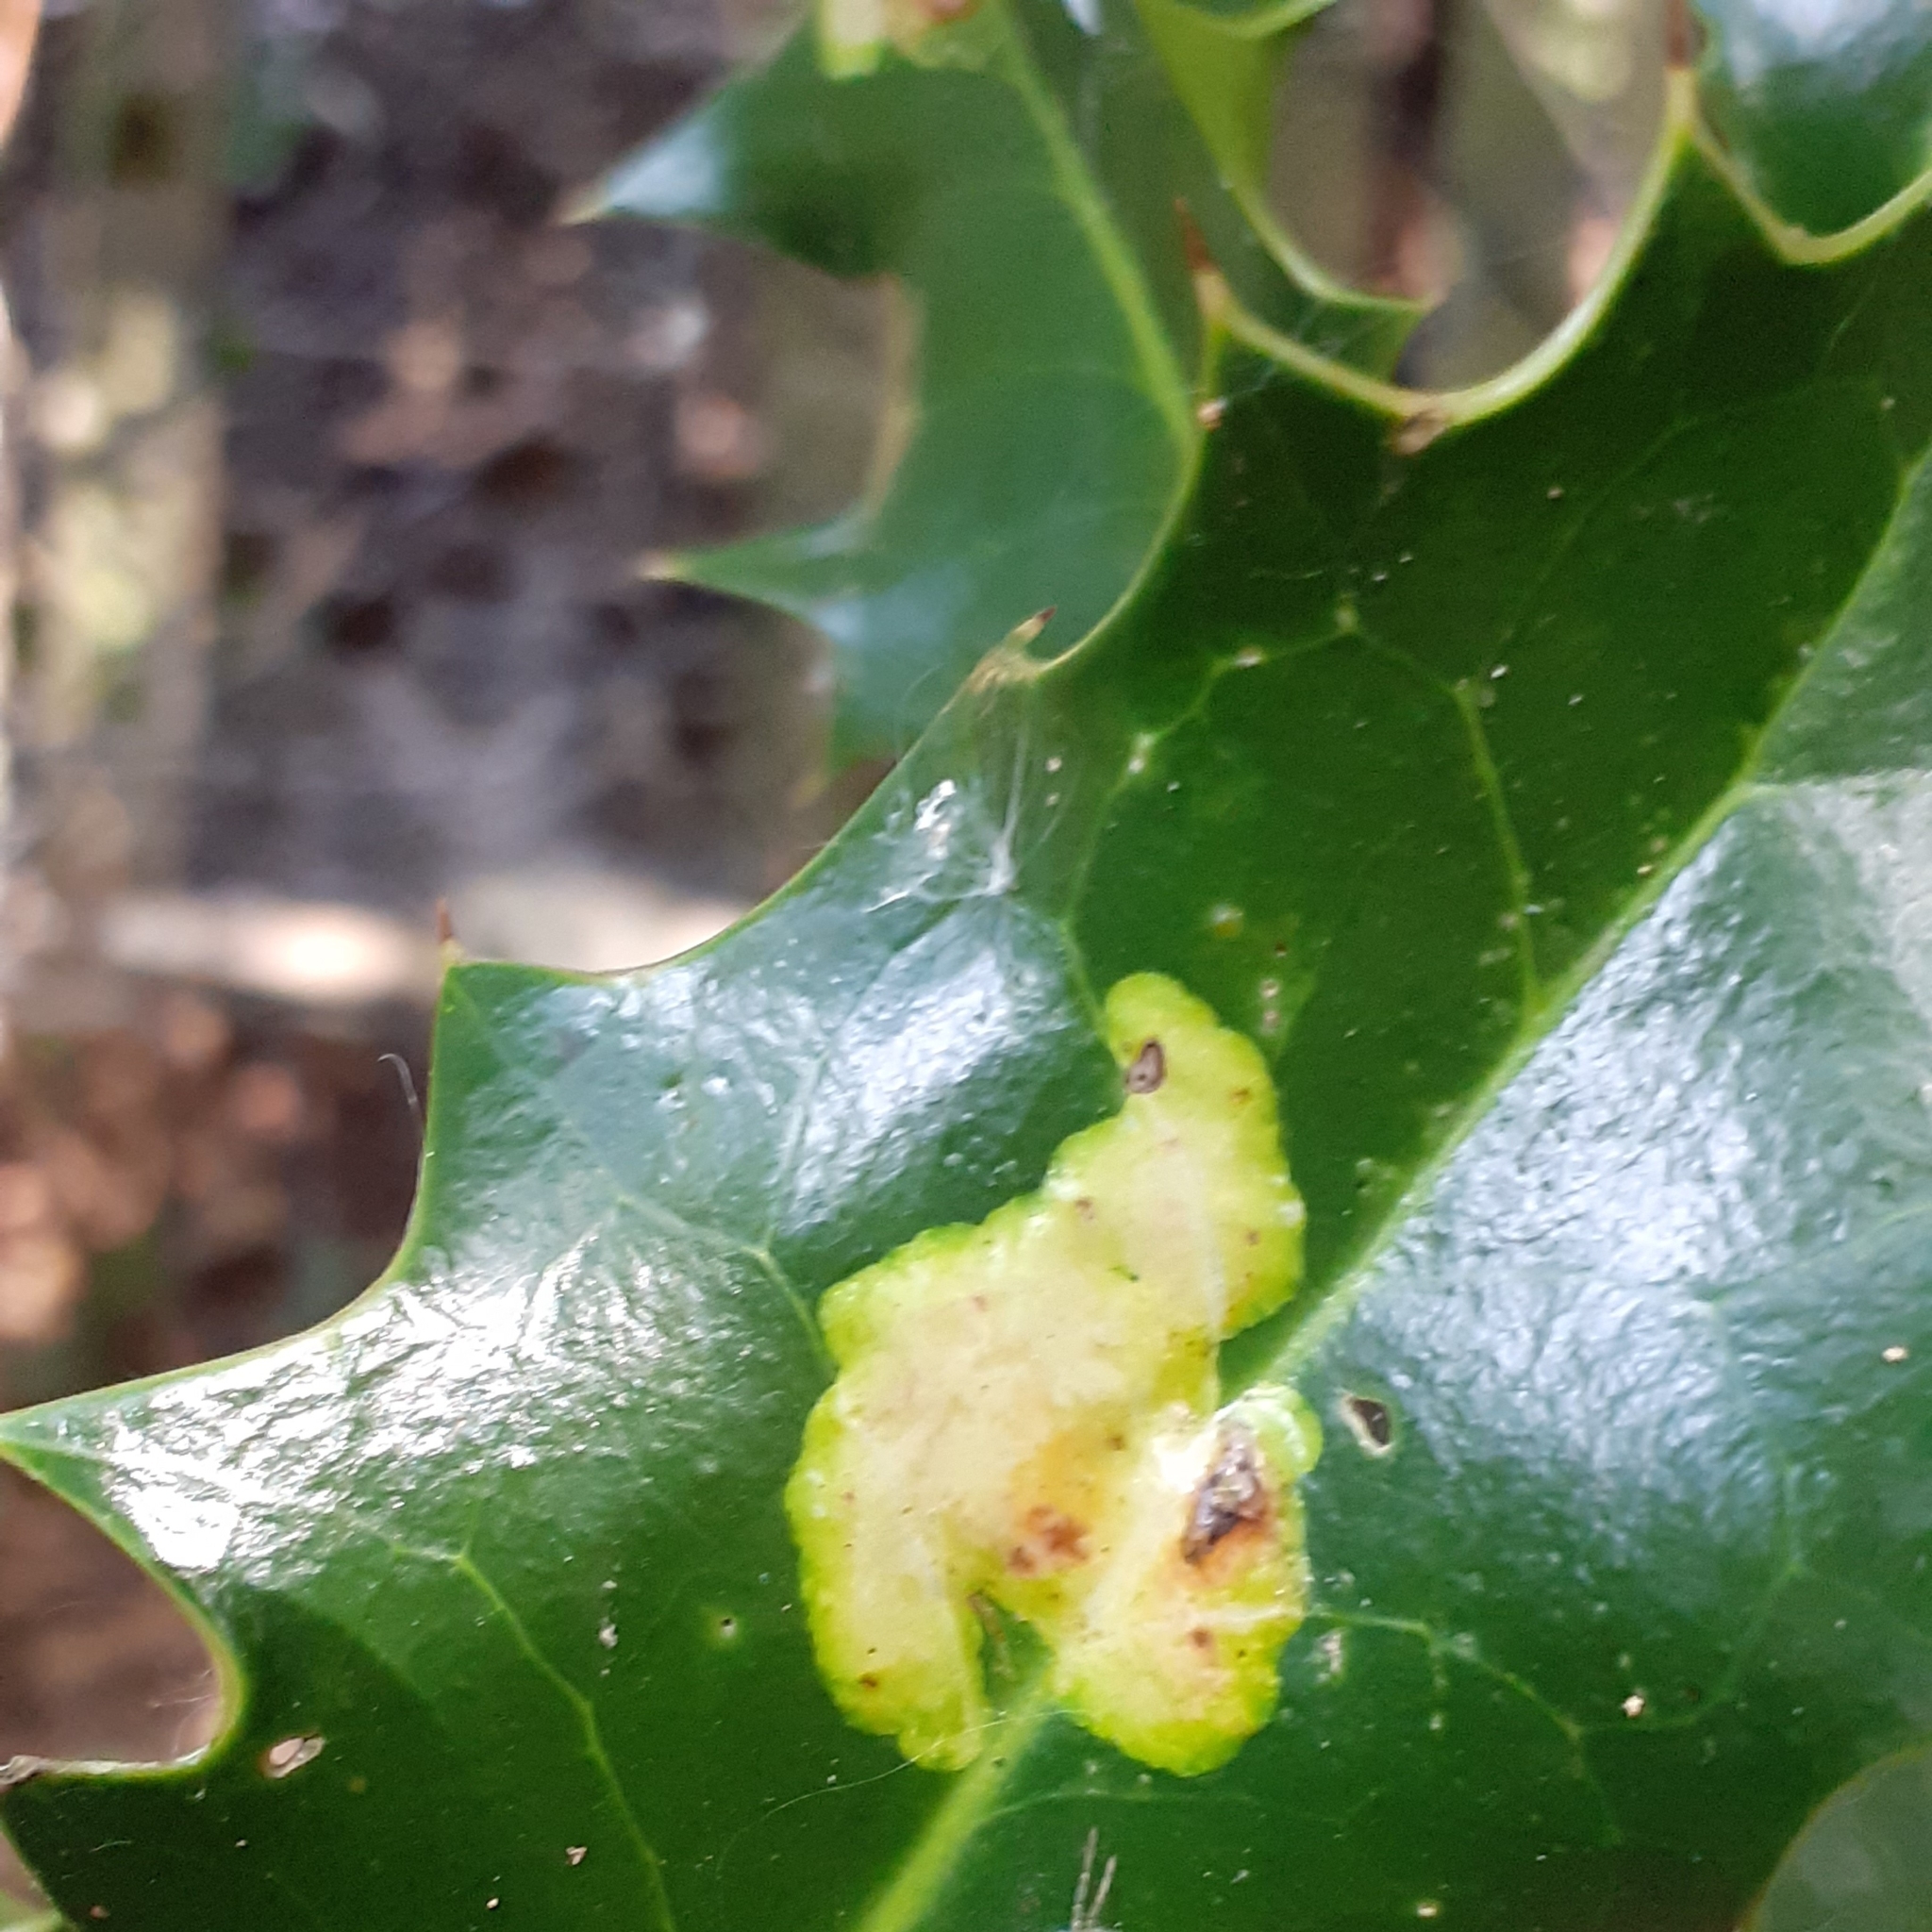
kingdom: Animalia
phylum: Arthropoda
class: Insecta
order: Diptera
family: Agromyzidae
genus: Phytomyza
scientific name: Phytomyza ilicis
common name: Holly leafminer
